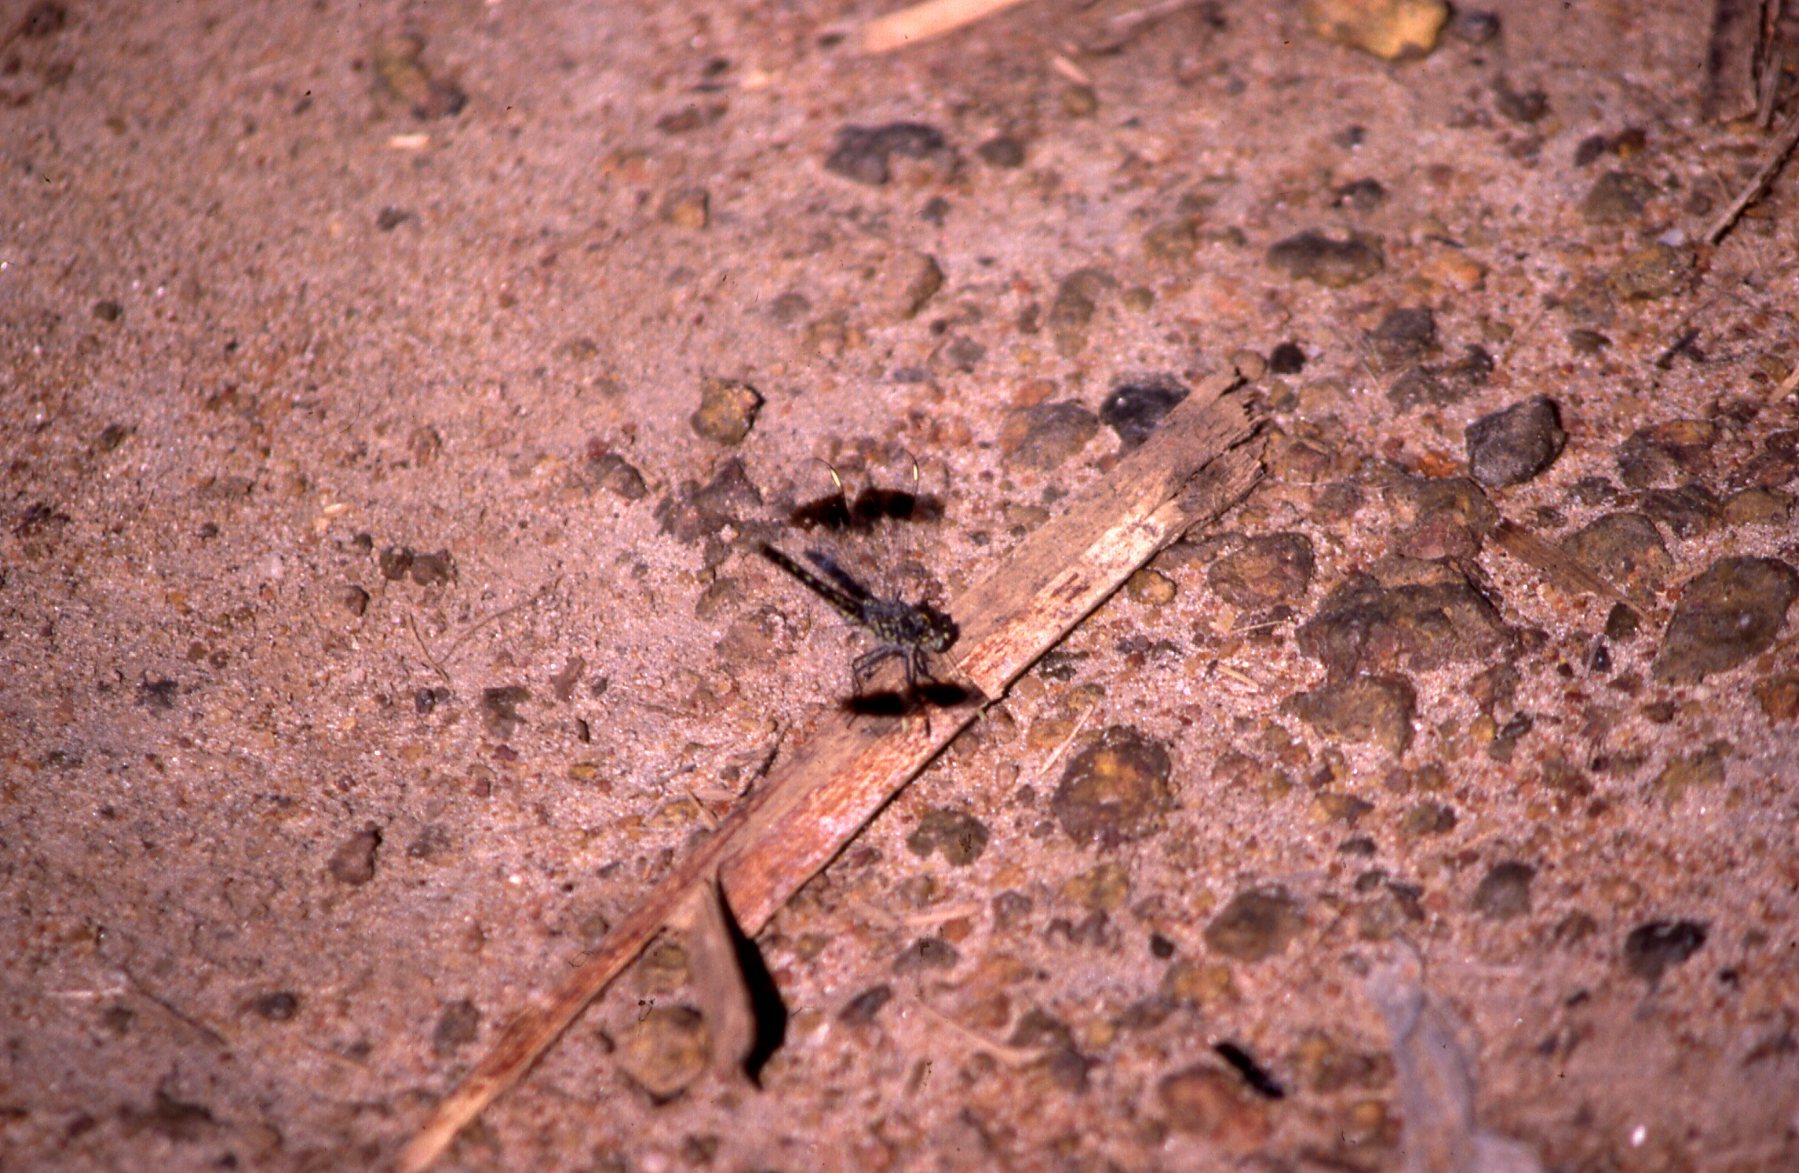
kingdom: Animalia
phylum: Arthropoda
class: Insecta
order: Odonata
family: Libellulidae
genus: Brachythemis
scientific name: Brachythemis leucosticta
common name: Banded groundling
